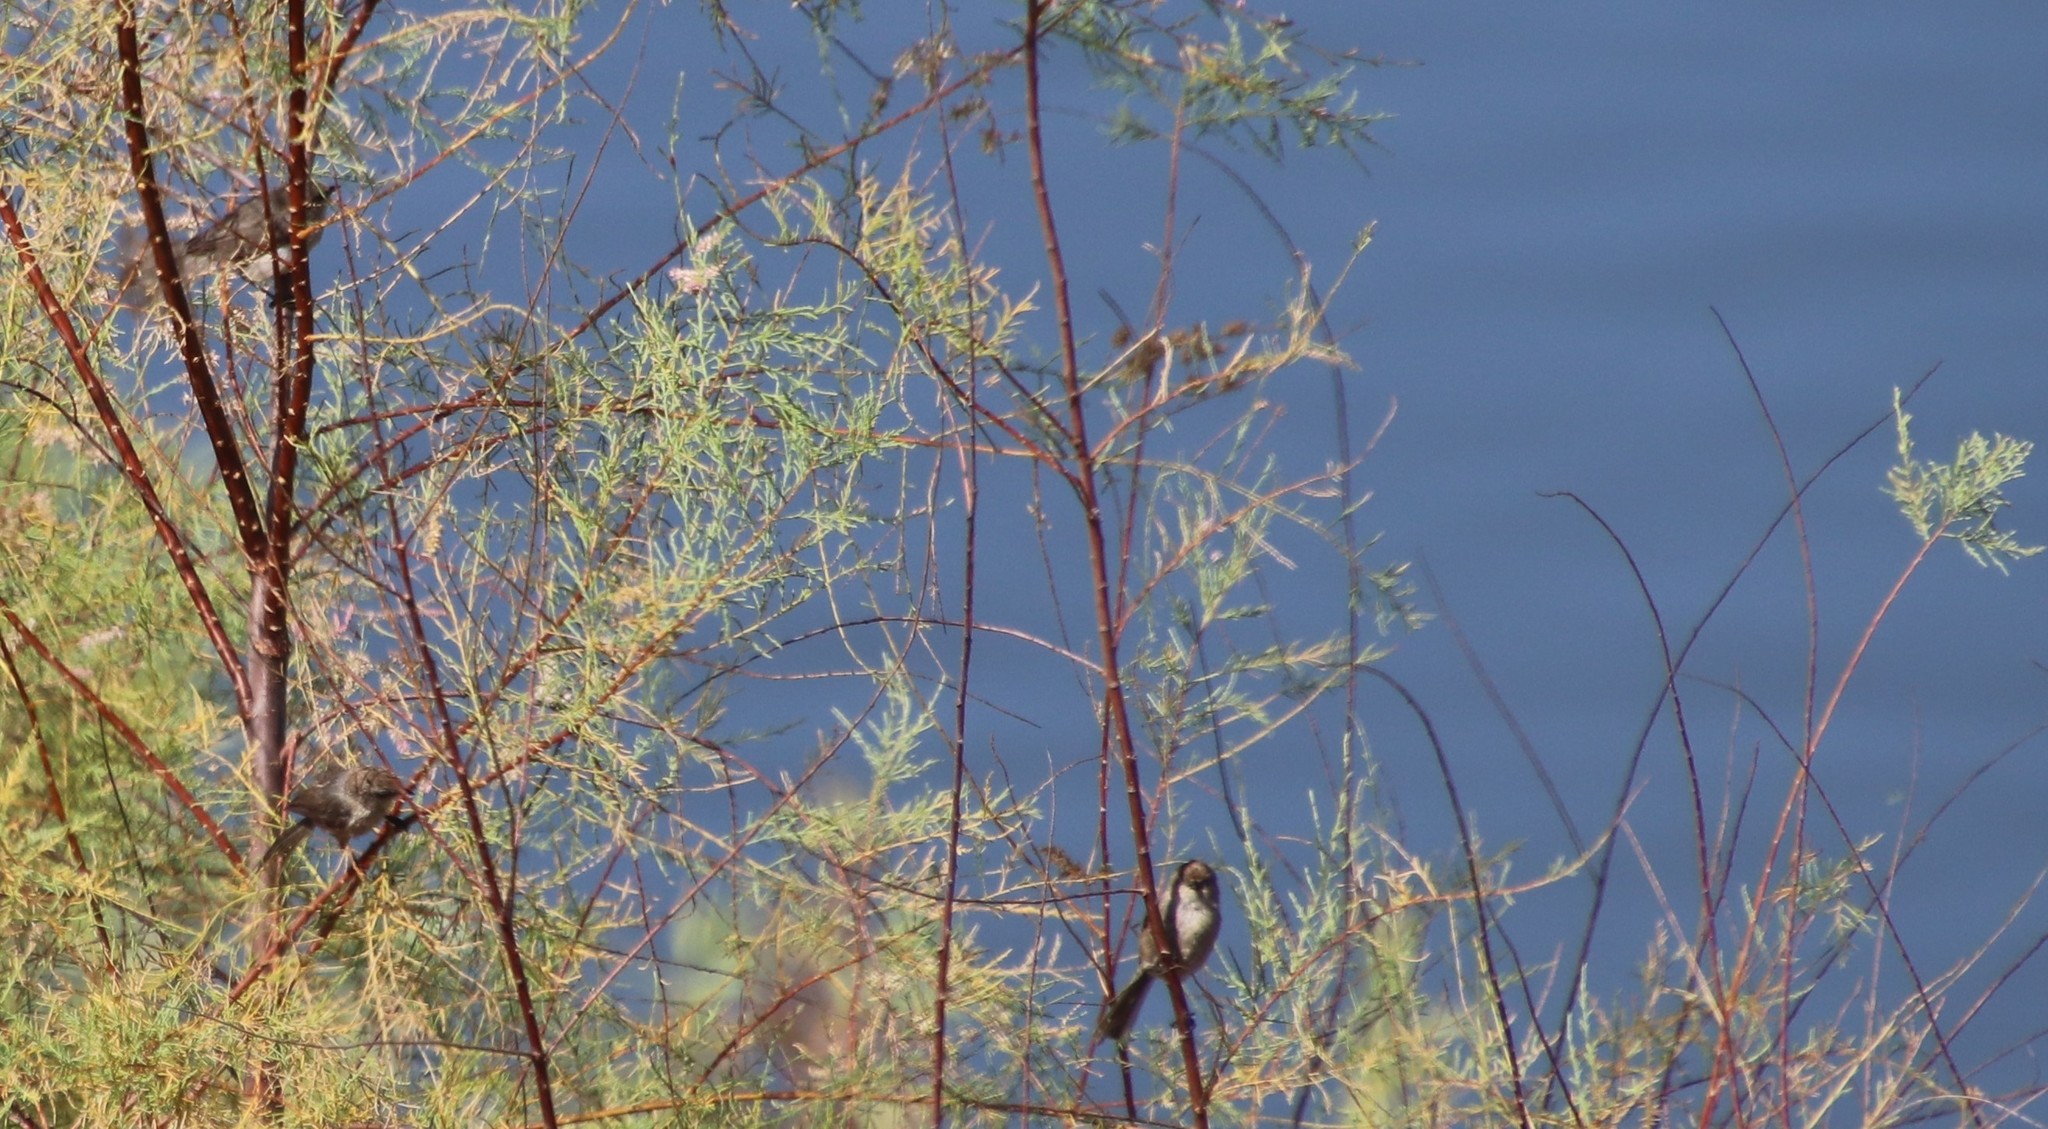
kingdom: Animalia
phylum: Chordata
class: Aves
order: Passeriformes
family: Aegithalidae
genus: Psaltriparus
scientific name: Psaltriparus minimus
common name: American bushtit
